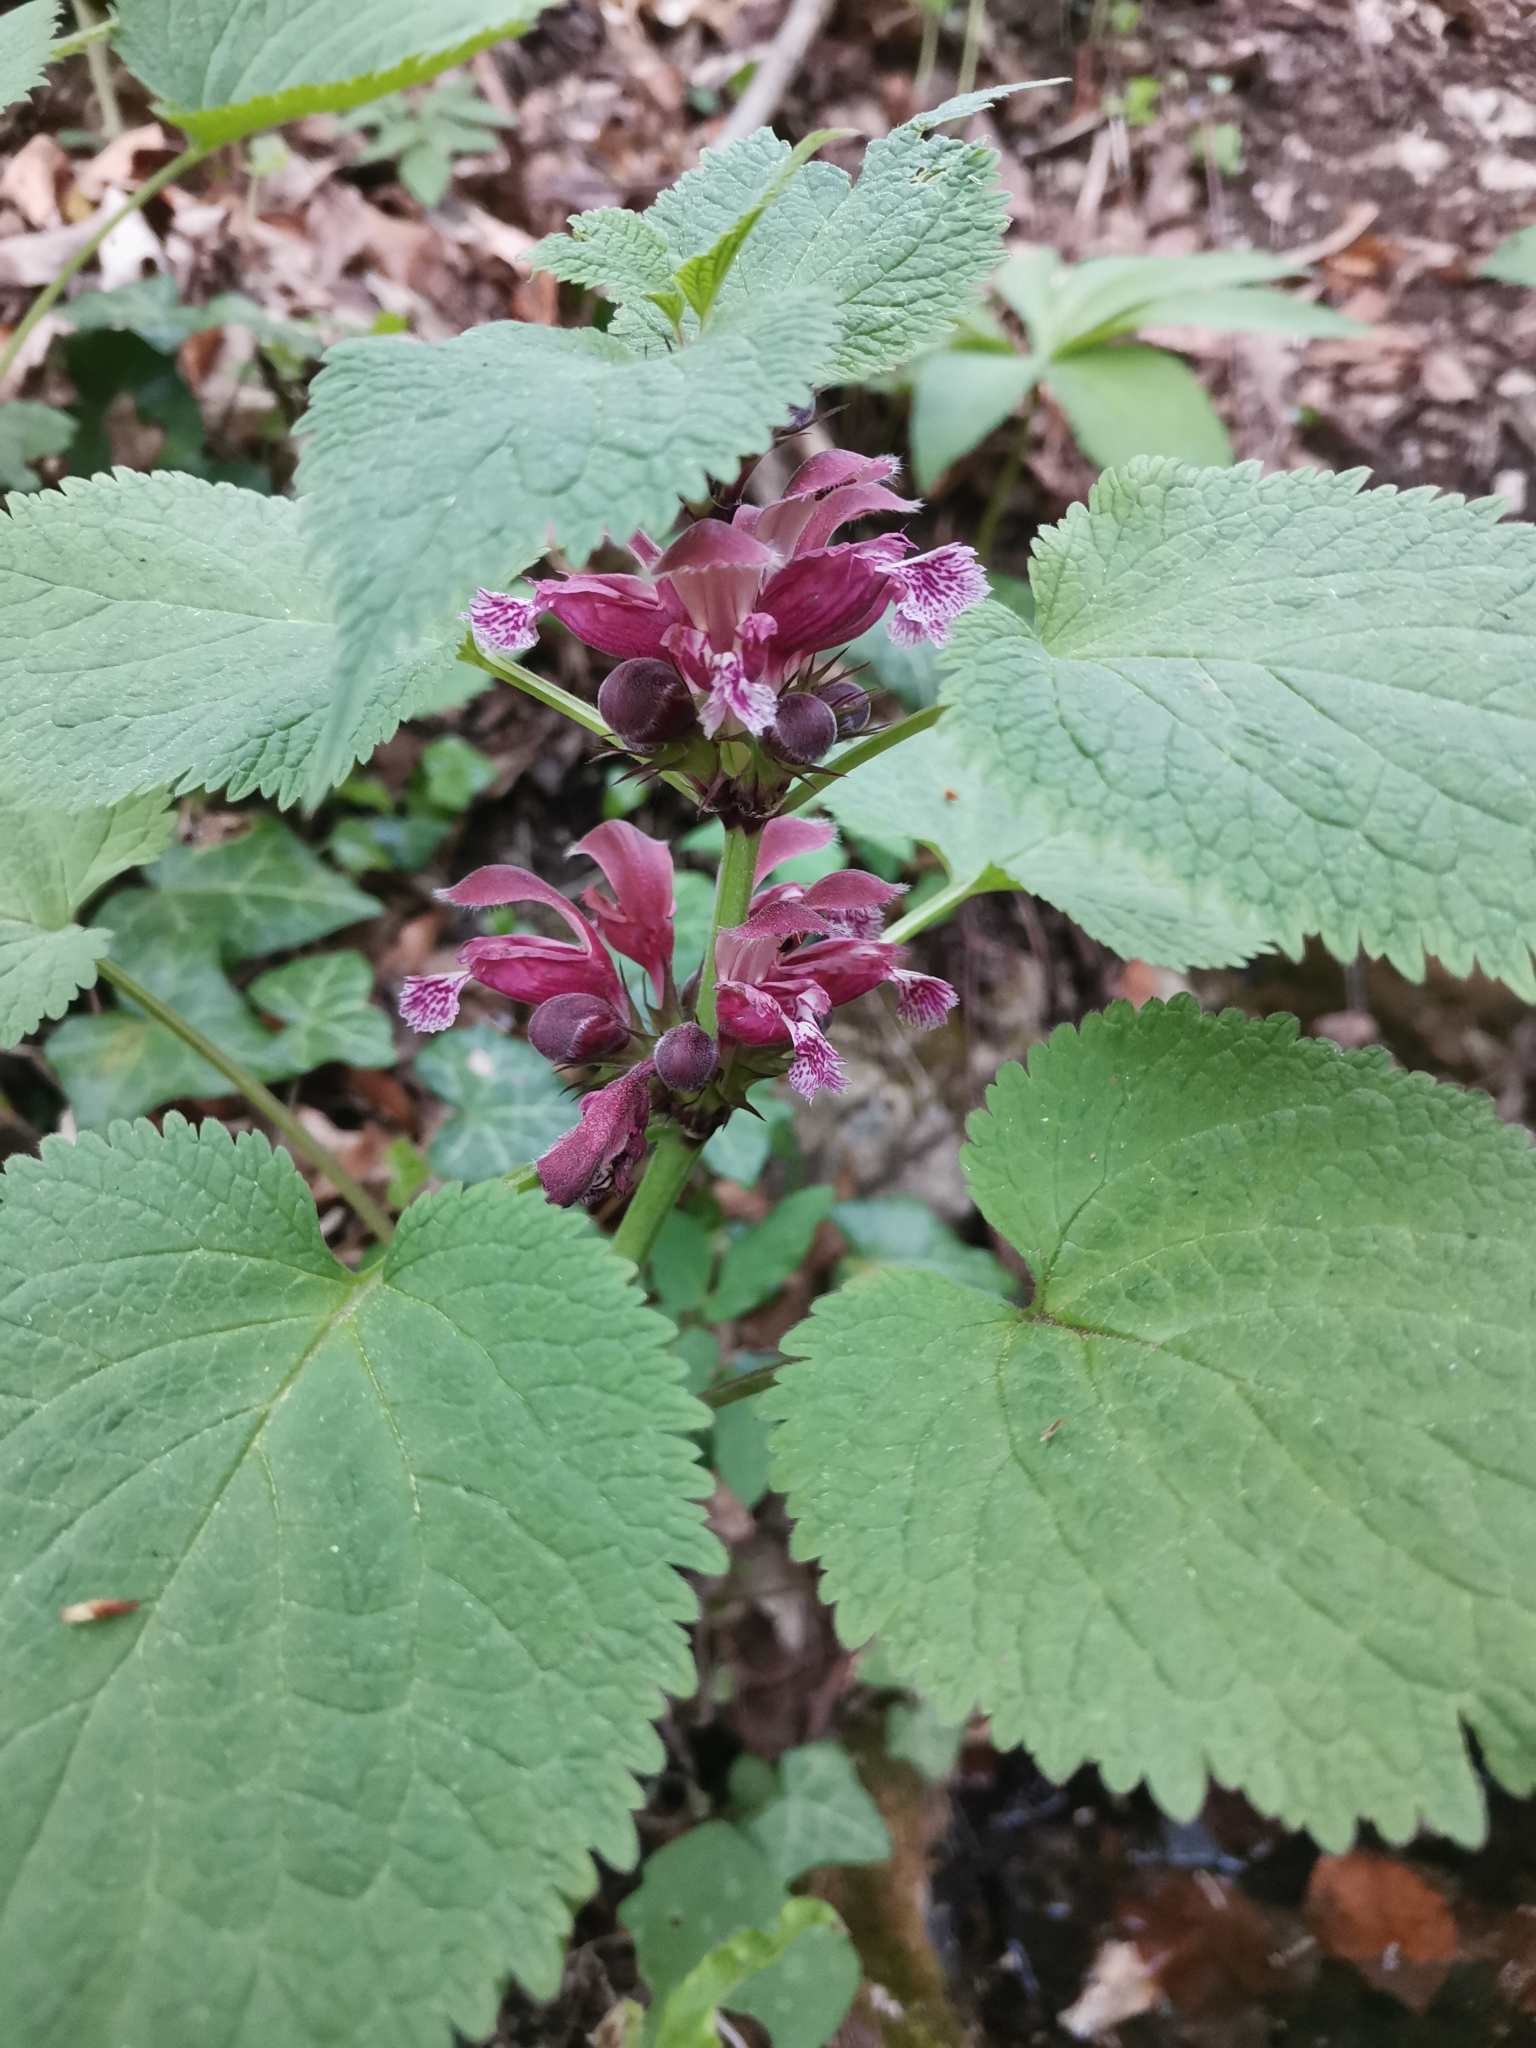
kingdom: Plantae
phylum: Tracheophyta
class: Magnoliopsida
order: Lamiales
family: Lamiaceae
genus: Lamium
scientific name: Lamium orvala
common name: Balm-leaved archangel
